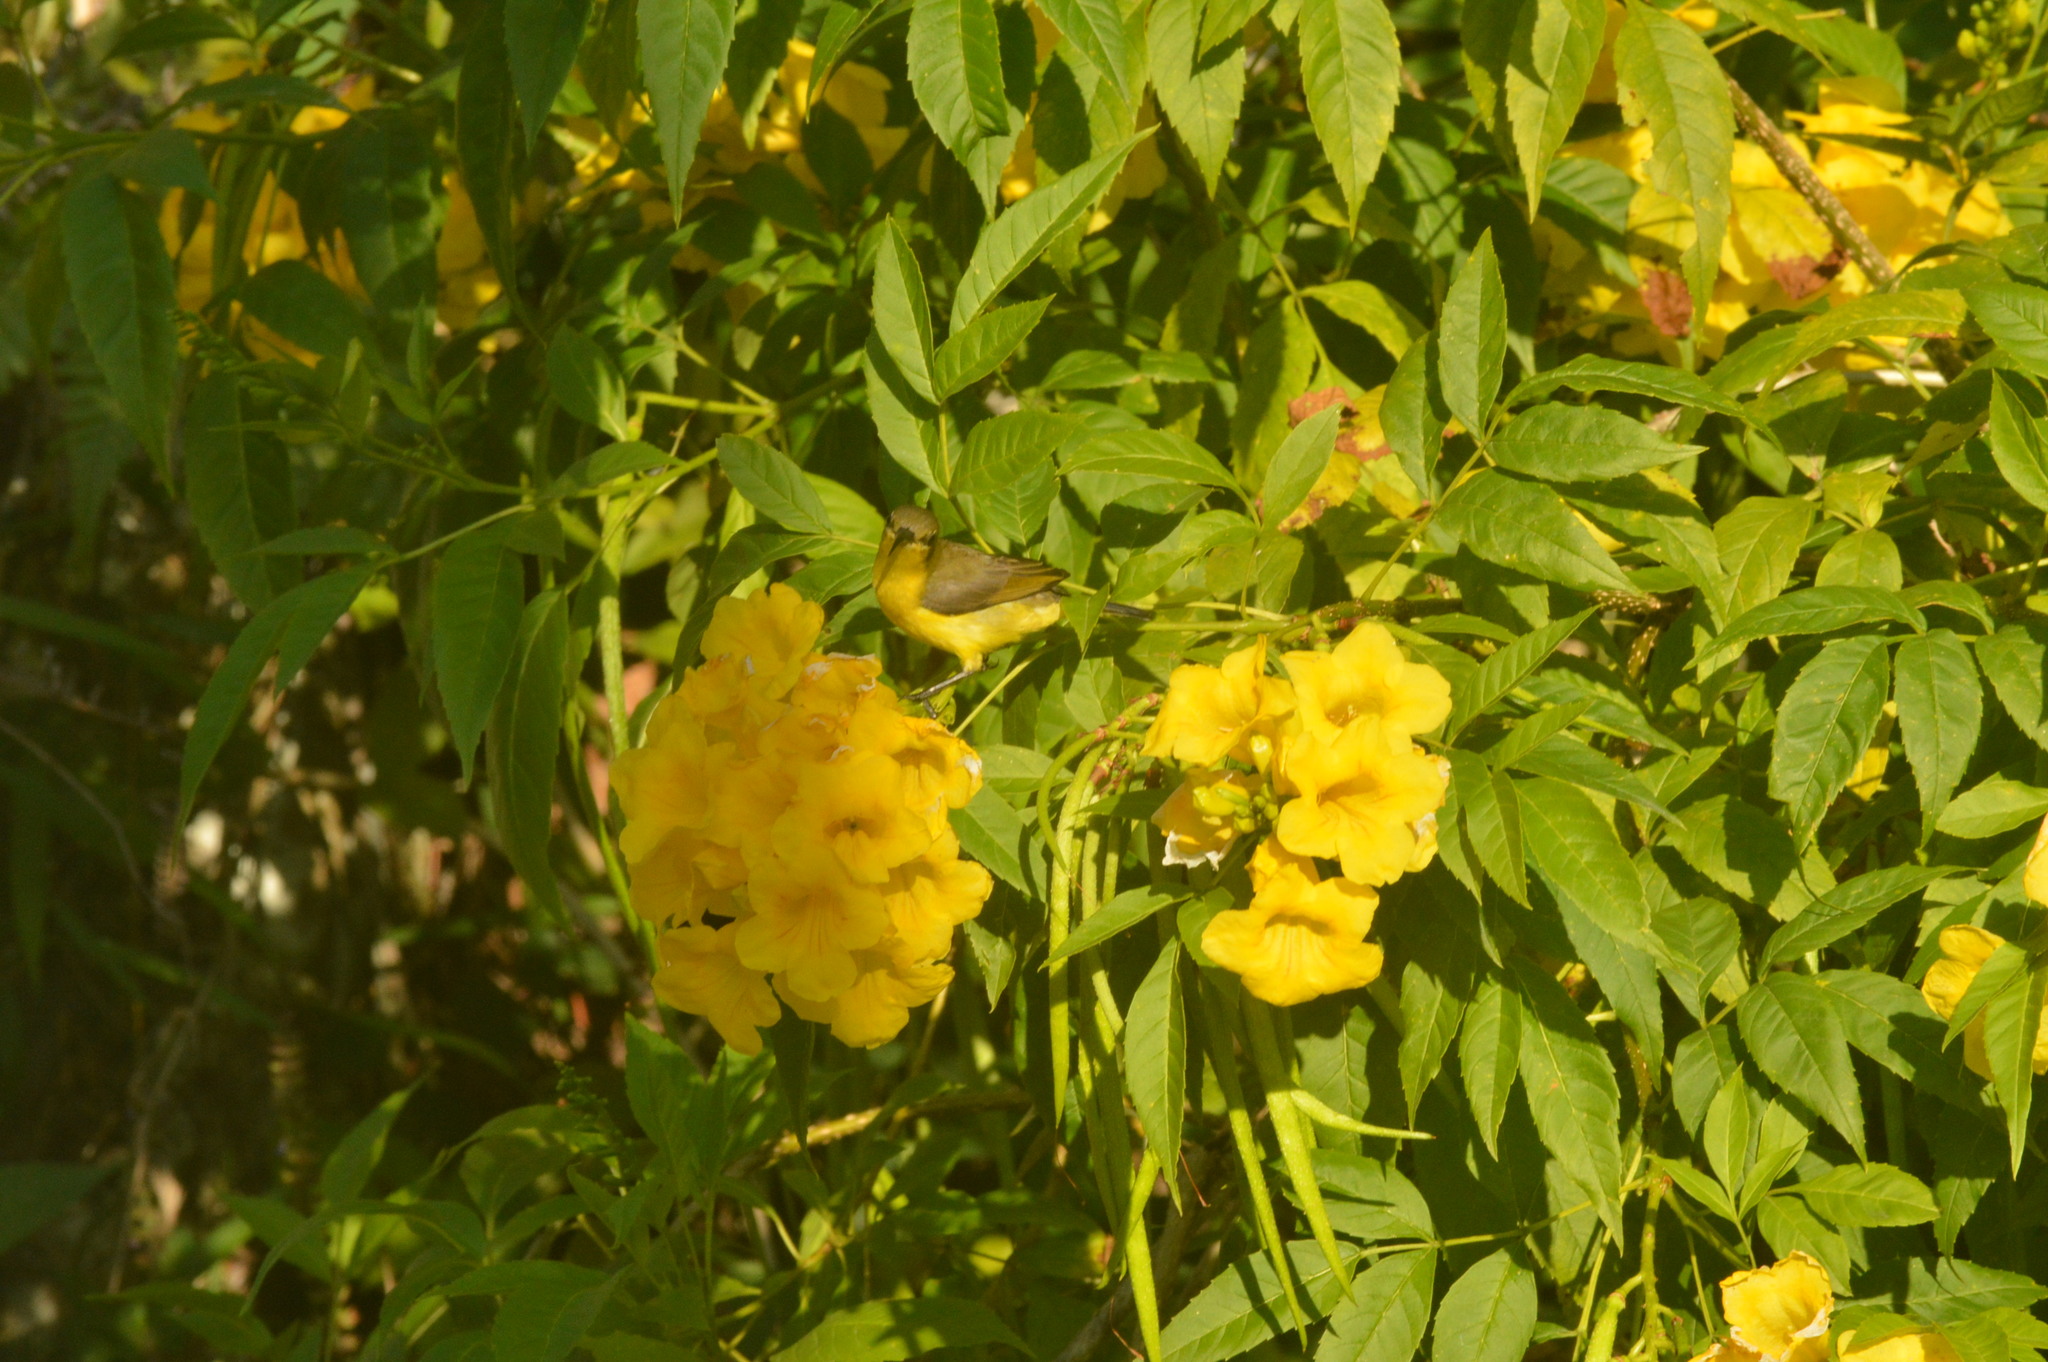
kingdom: Animalia
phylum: Chordata
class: Aves
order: Passeriformes
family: Nectariniidae
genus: Cinnyris
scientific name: Cinnyris
